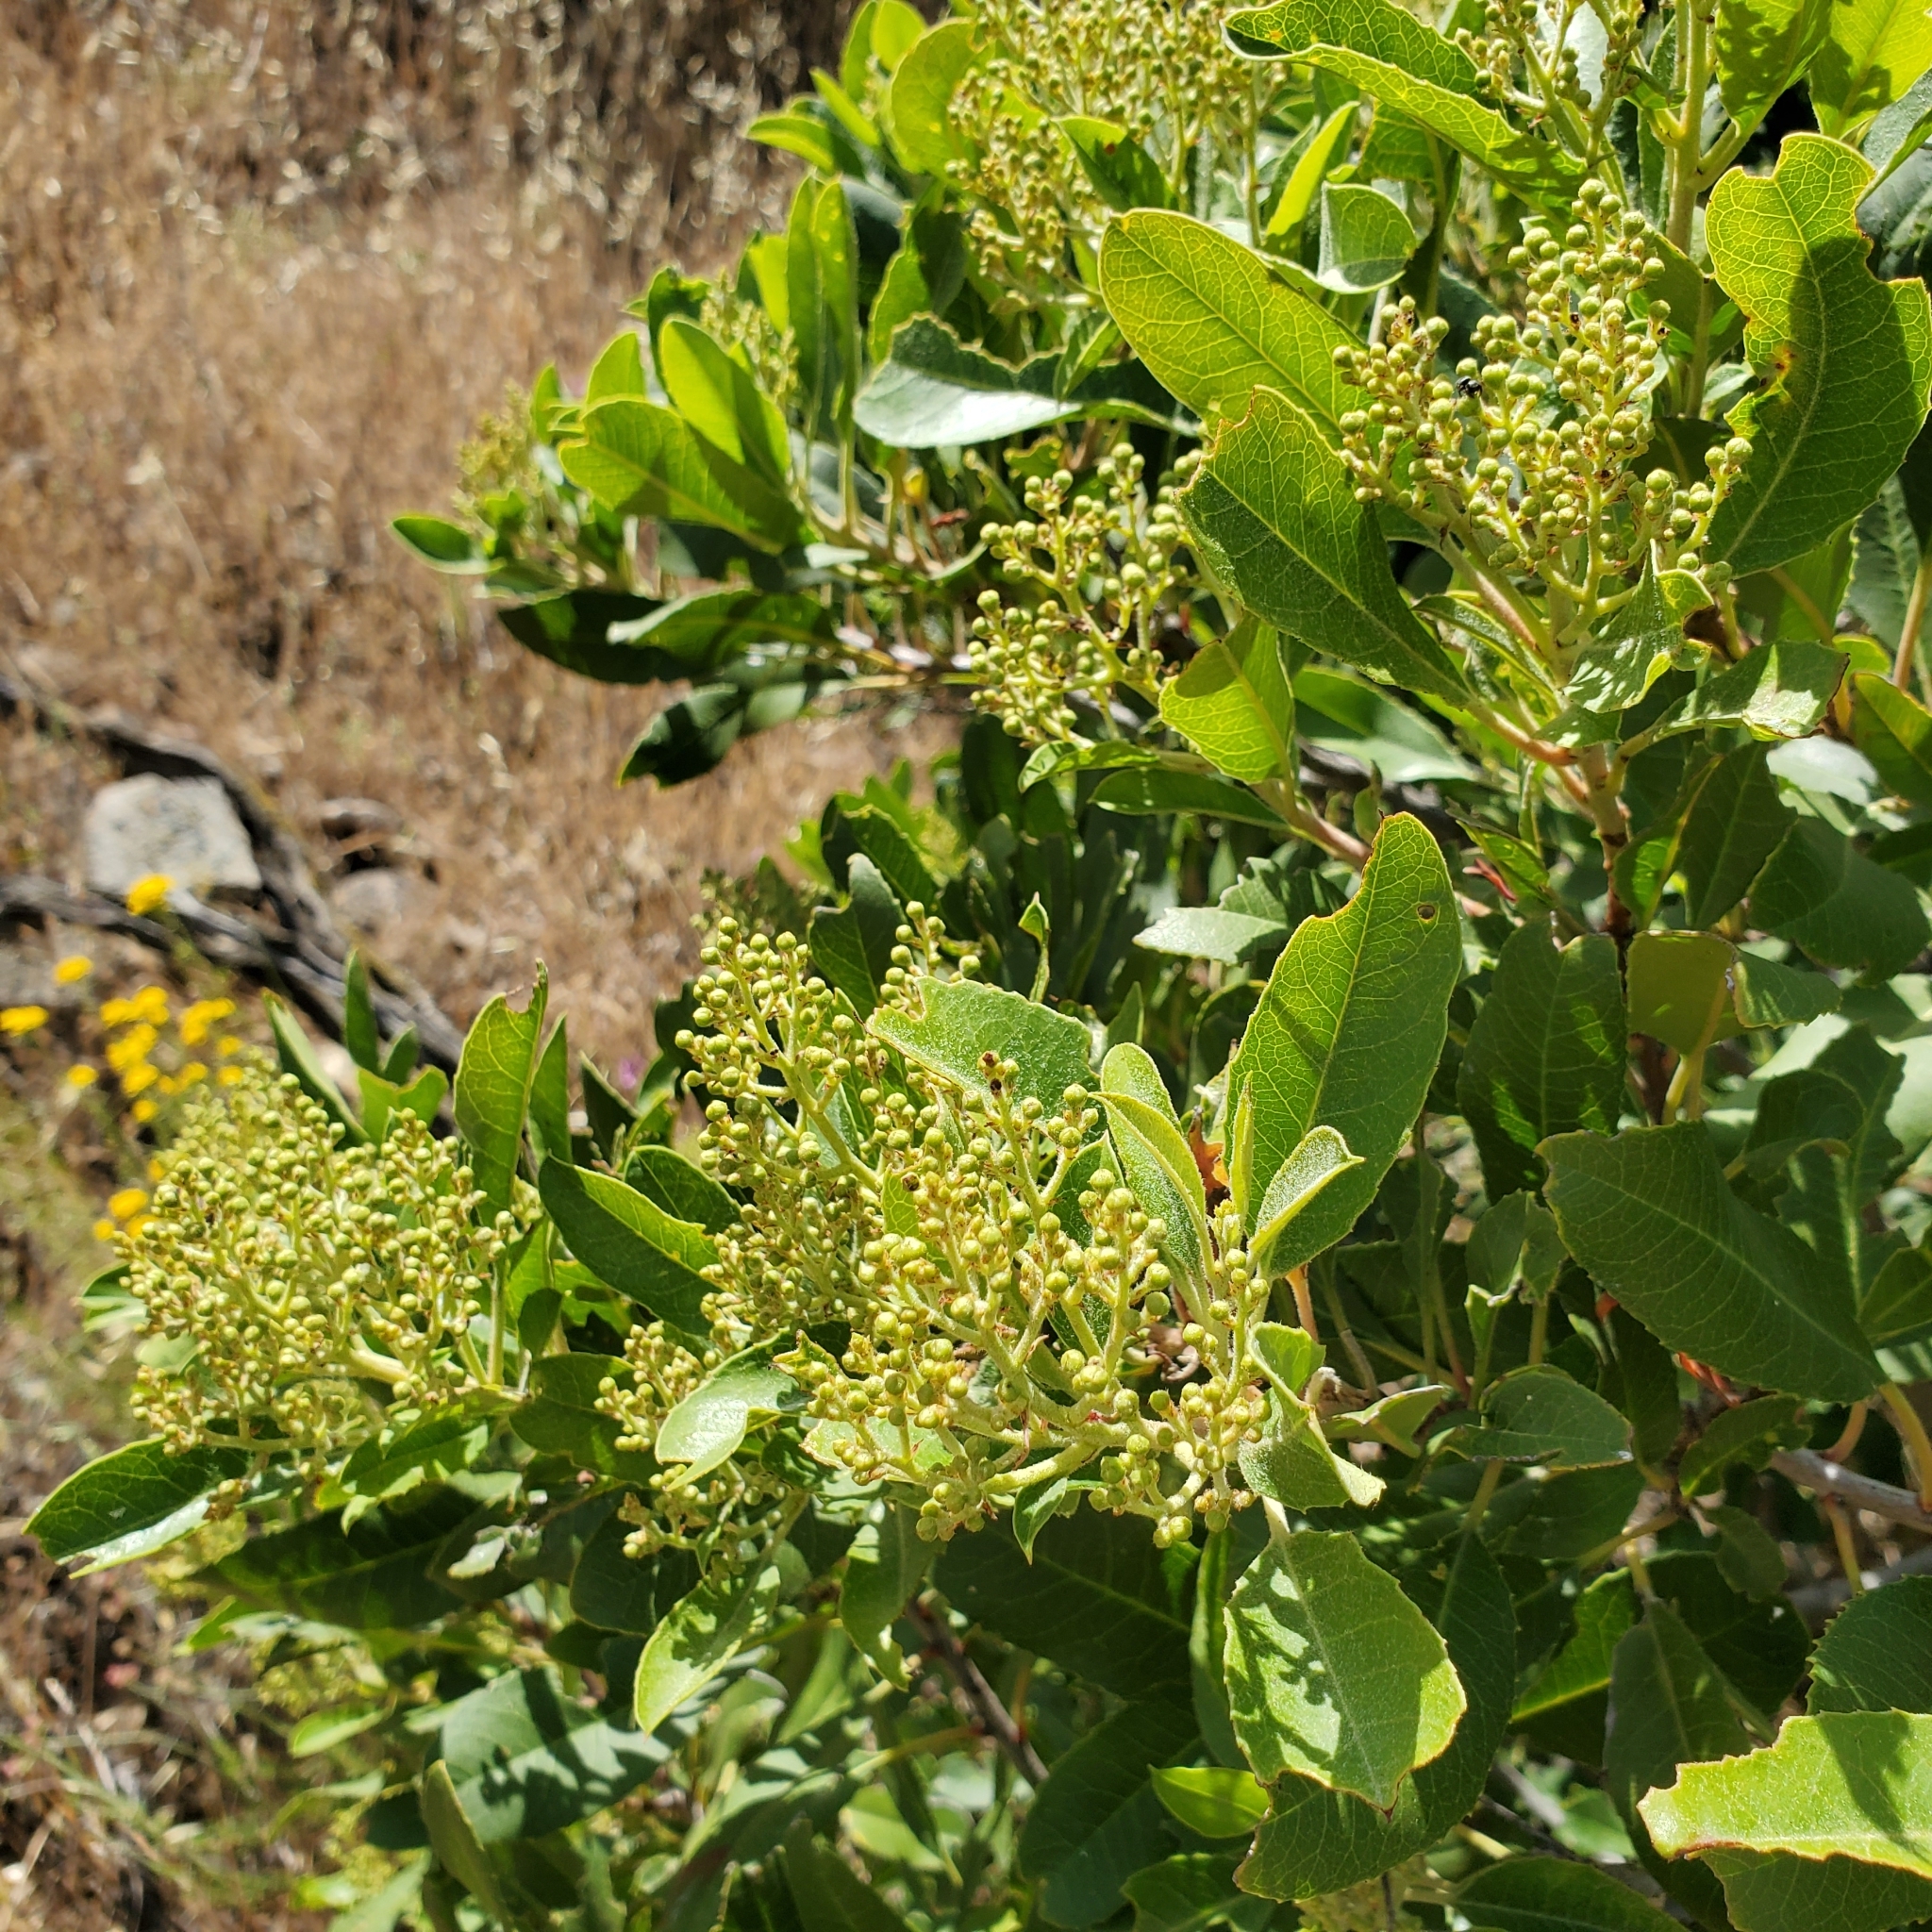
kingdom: Plantae
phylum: Tracheophyta
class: Magnoliopsida
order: Rosales
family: Rosaceae
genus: Heteromeles
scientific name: Heteromeles arbutifolia
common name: California-holly
